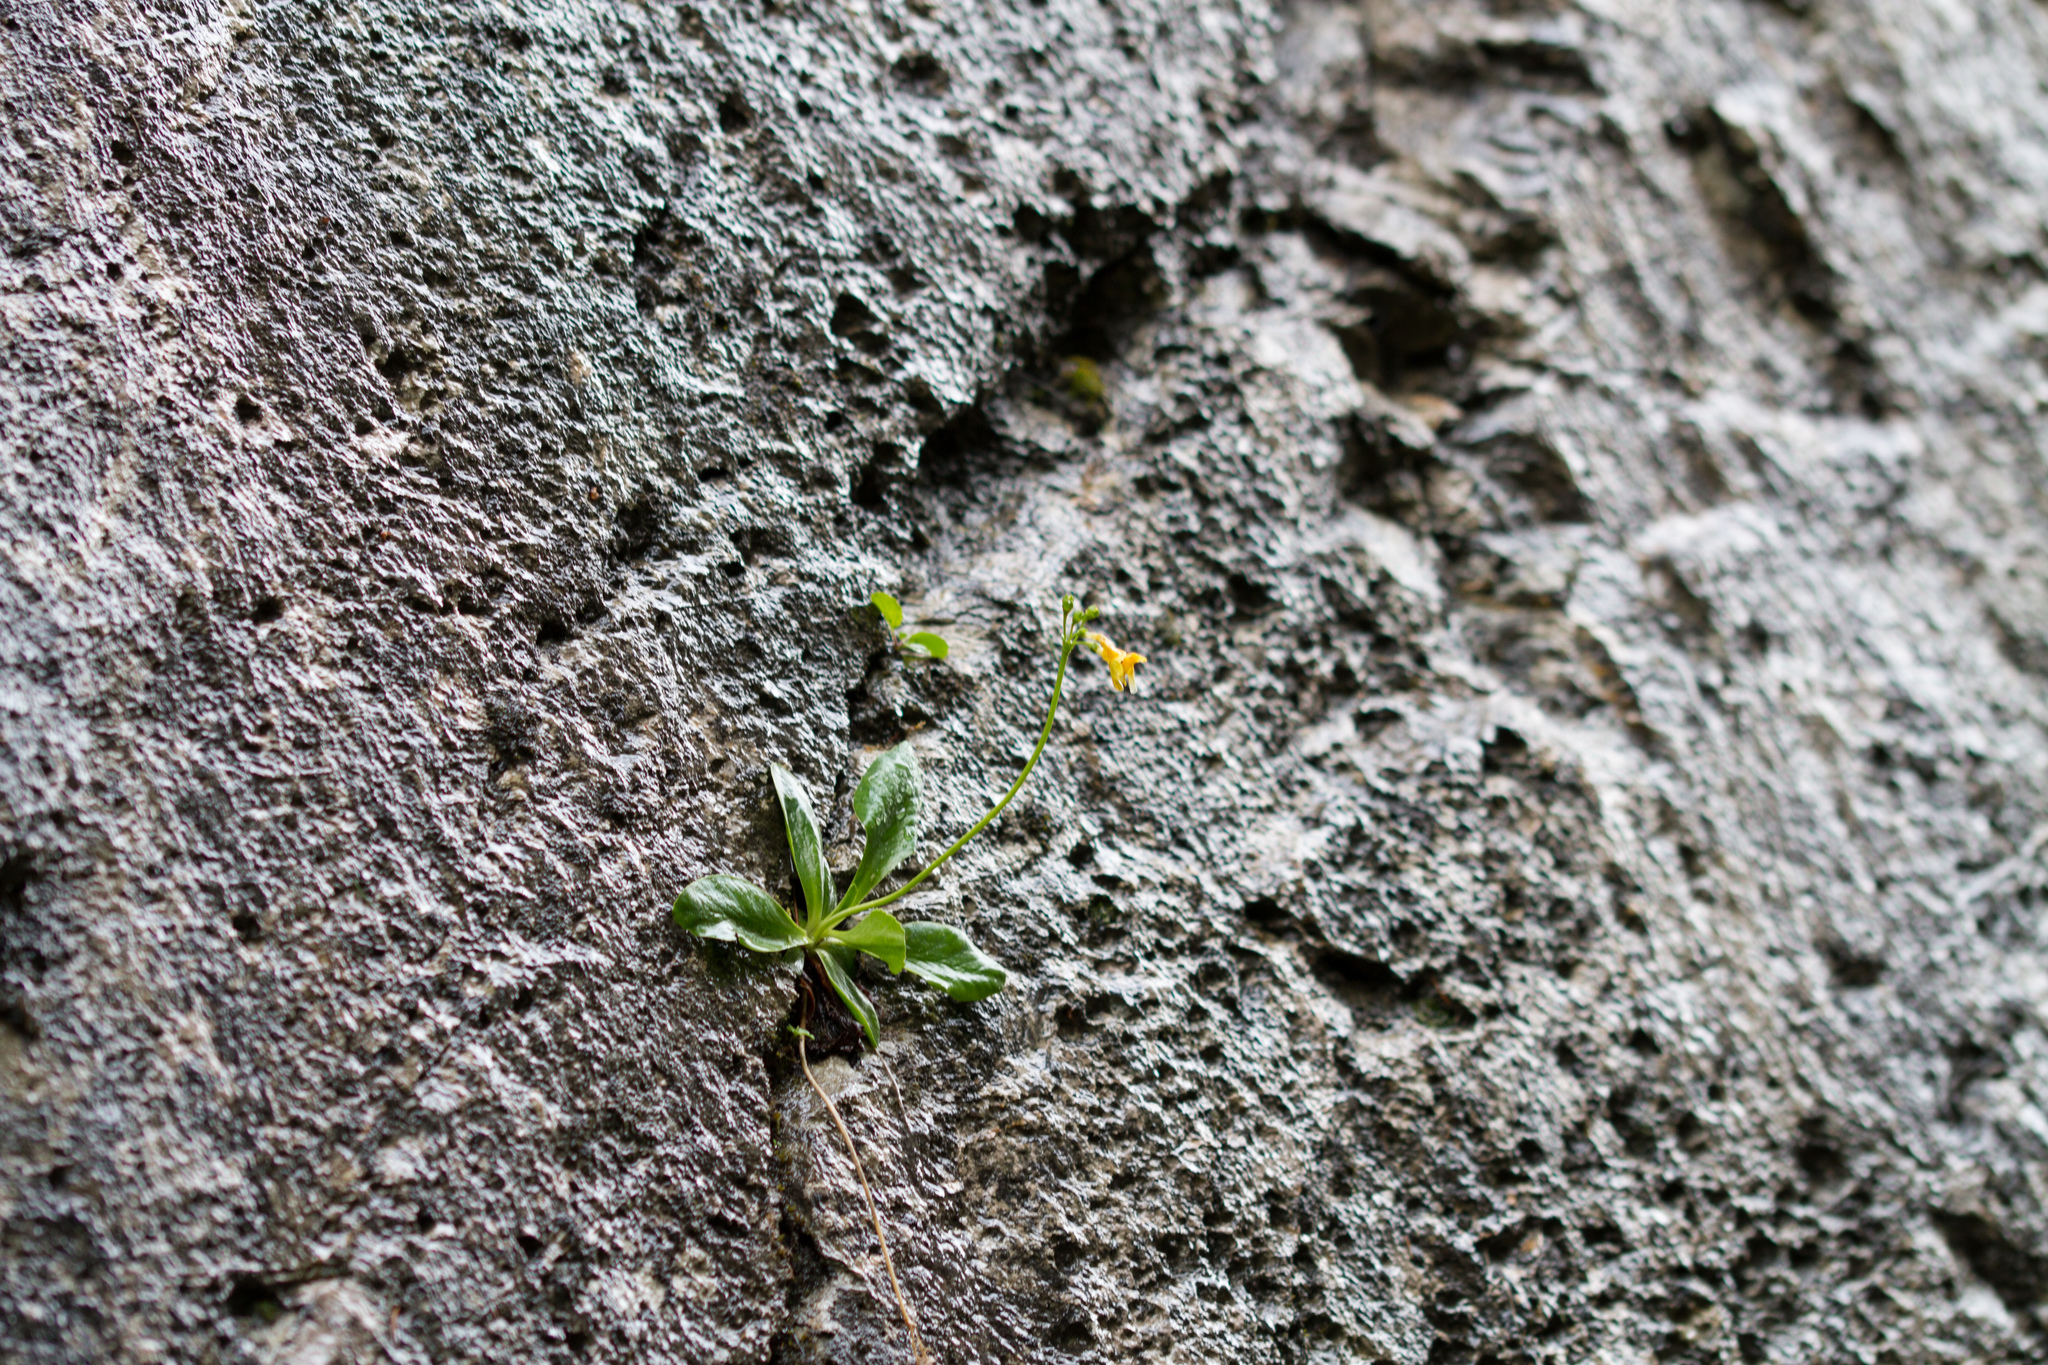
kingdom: Plantae
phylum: Tracheophyta
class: Magnoliopsida
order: Ericales
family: Primulaceae
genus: Primula
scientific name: Primula auricula
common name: Auricula
